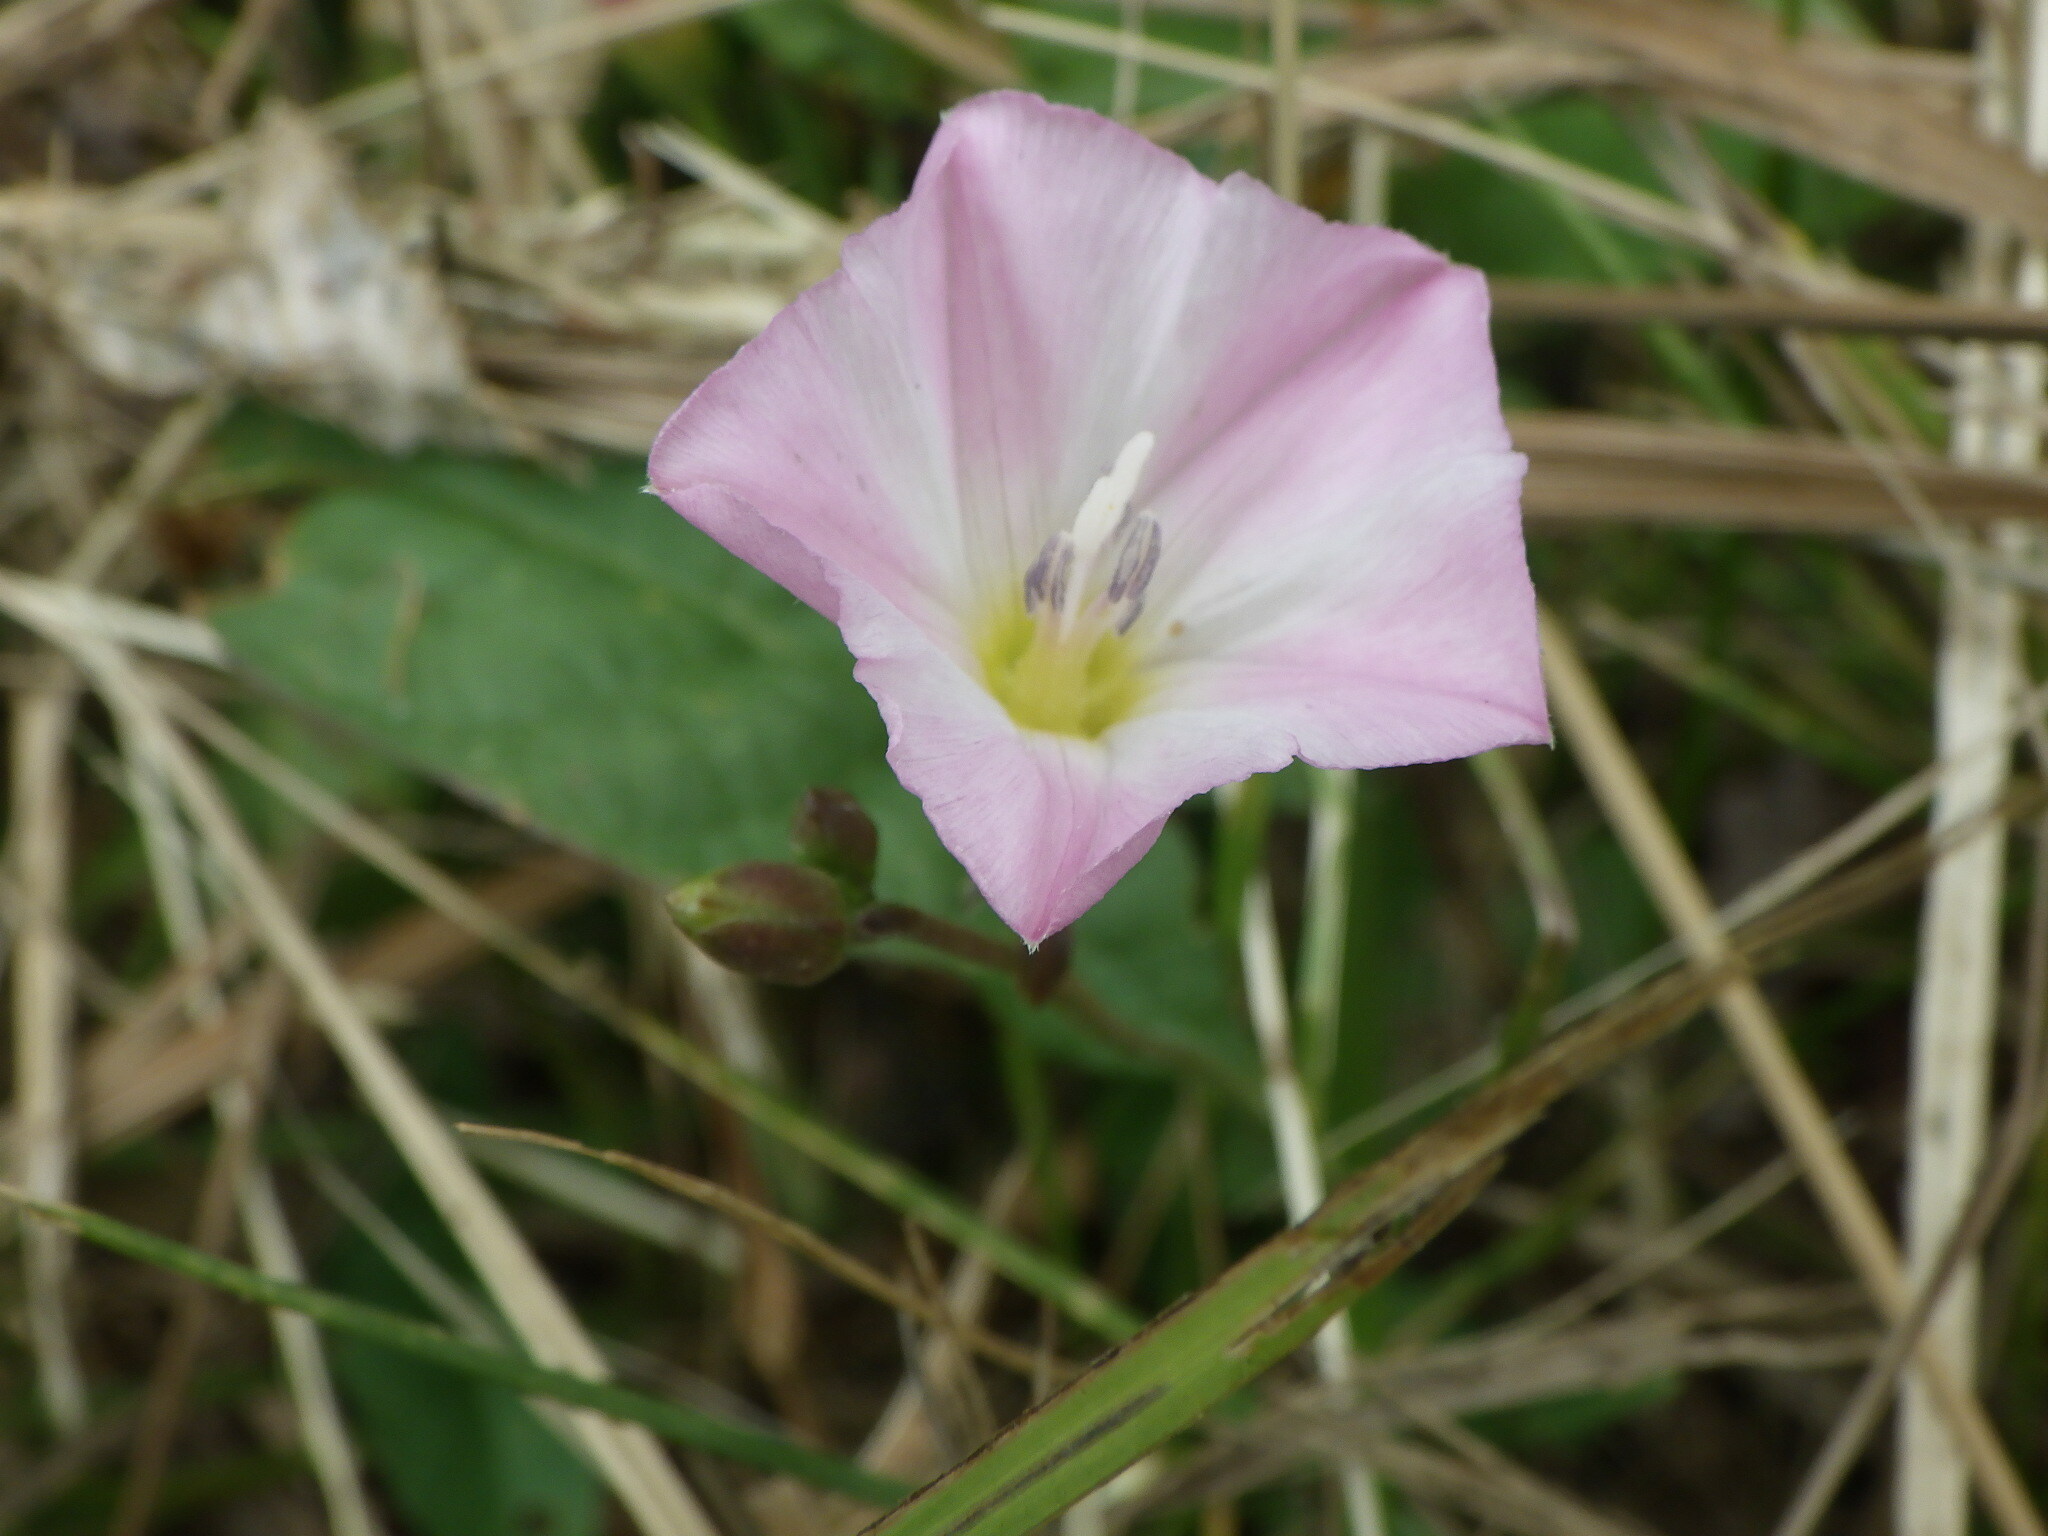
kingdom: Plantae
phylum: Tracheophyta
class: Magnoliopsida
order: Solanales
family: Convolvulaceae
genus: Convolvulus
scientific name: Convolvulus arvensis
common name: Field bindweed
